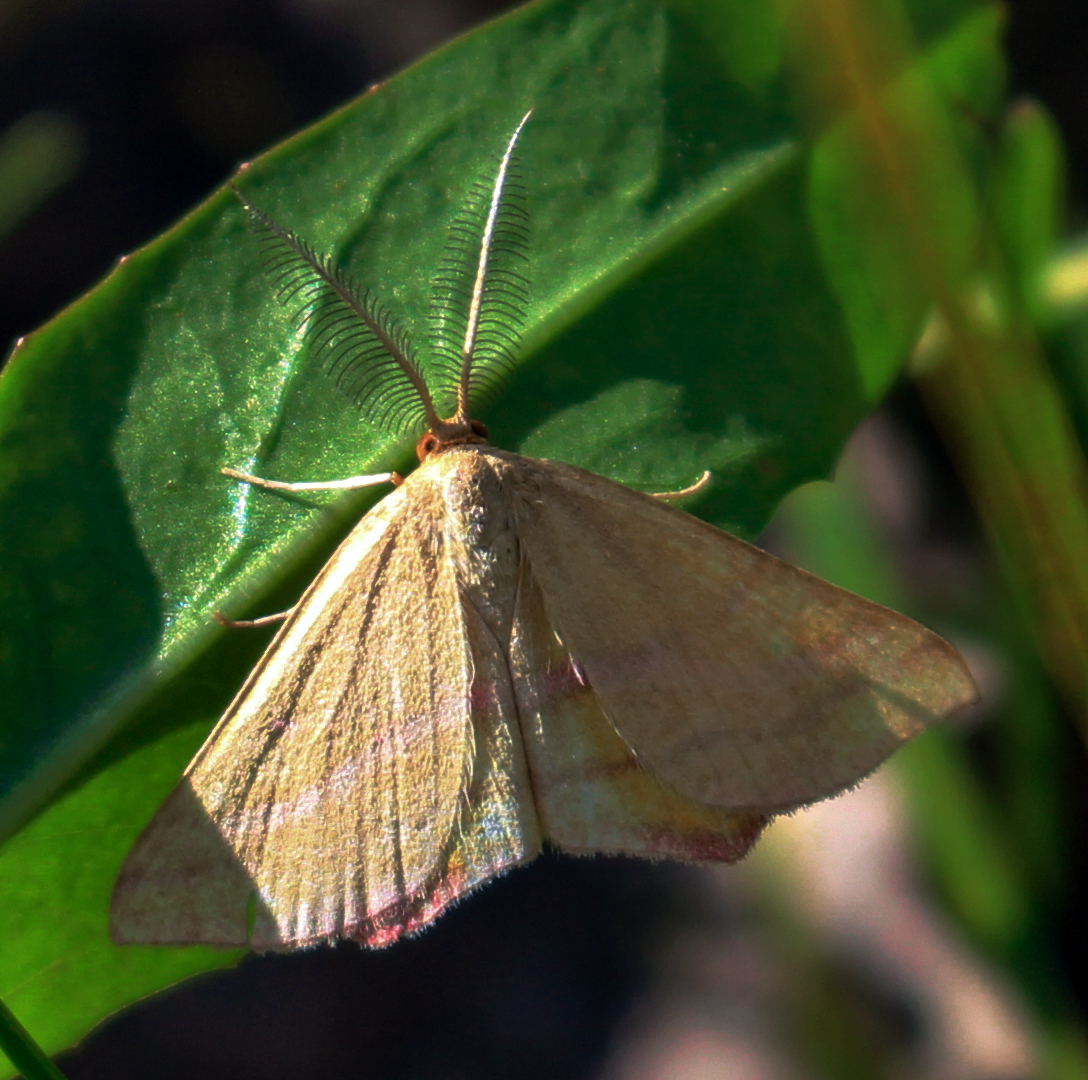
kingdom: Animalia
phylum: Arthropoda
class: Insecta
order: Lepidoptera
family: Geometridae
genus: Haematopis
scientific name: Haematopis grataria
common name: Chickweed geometer
